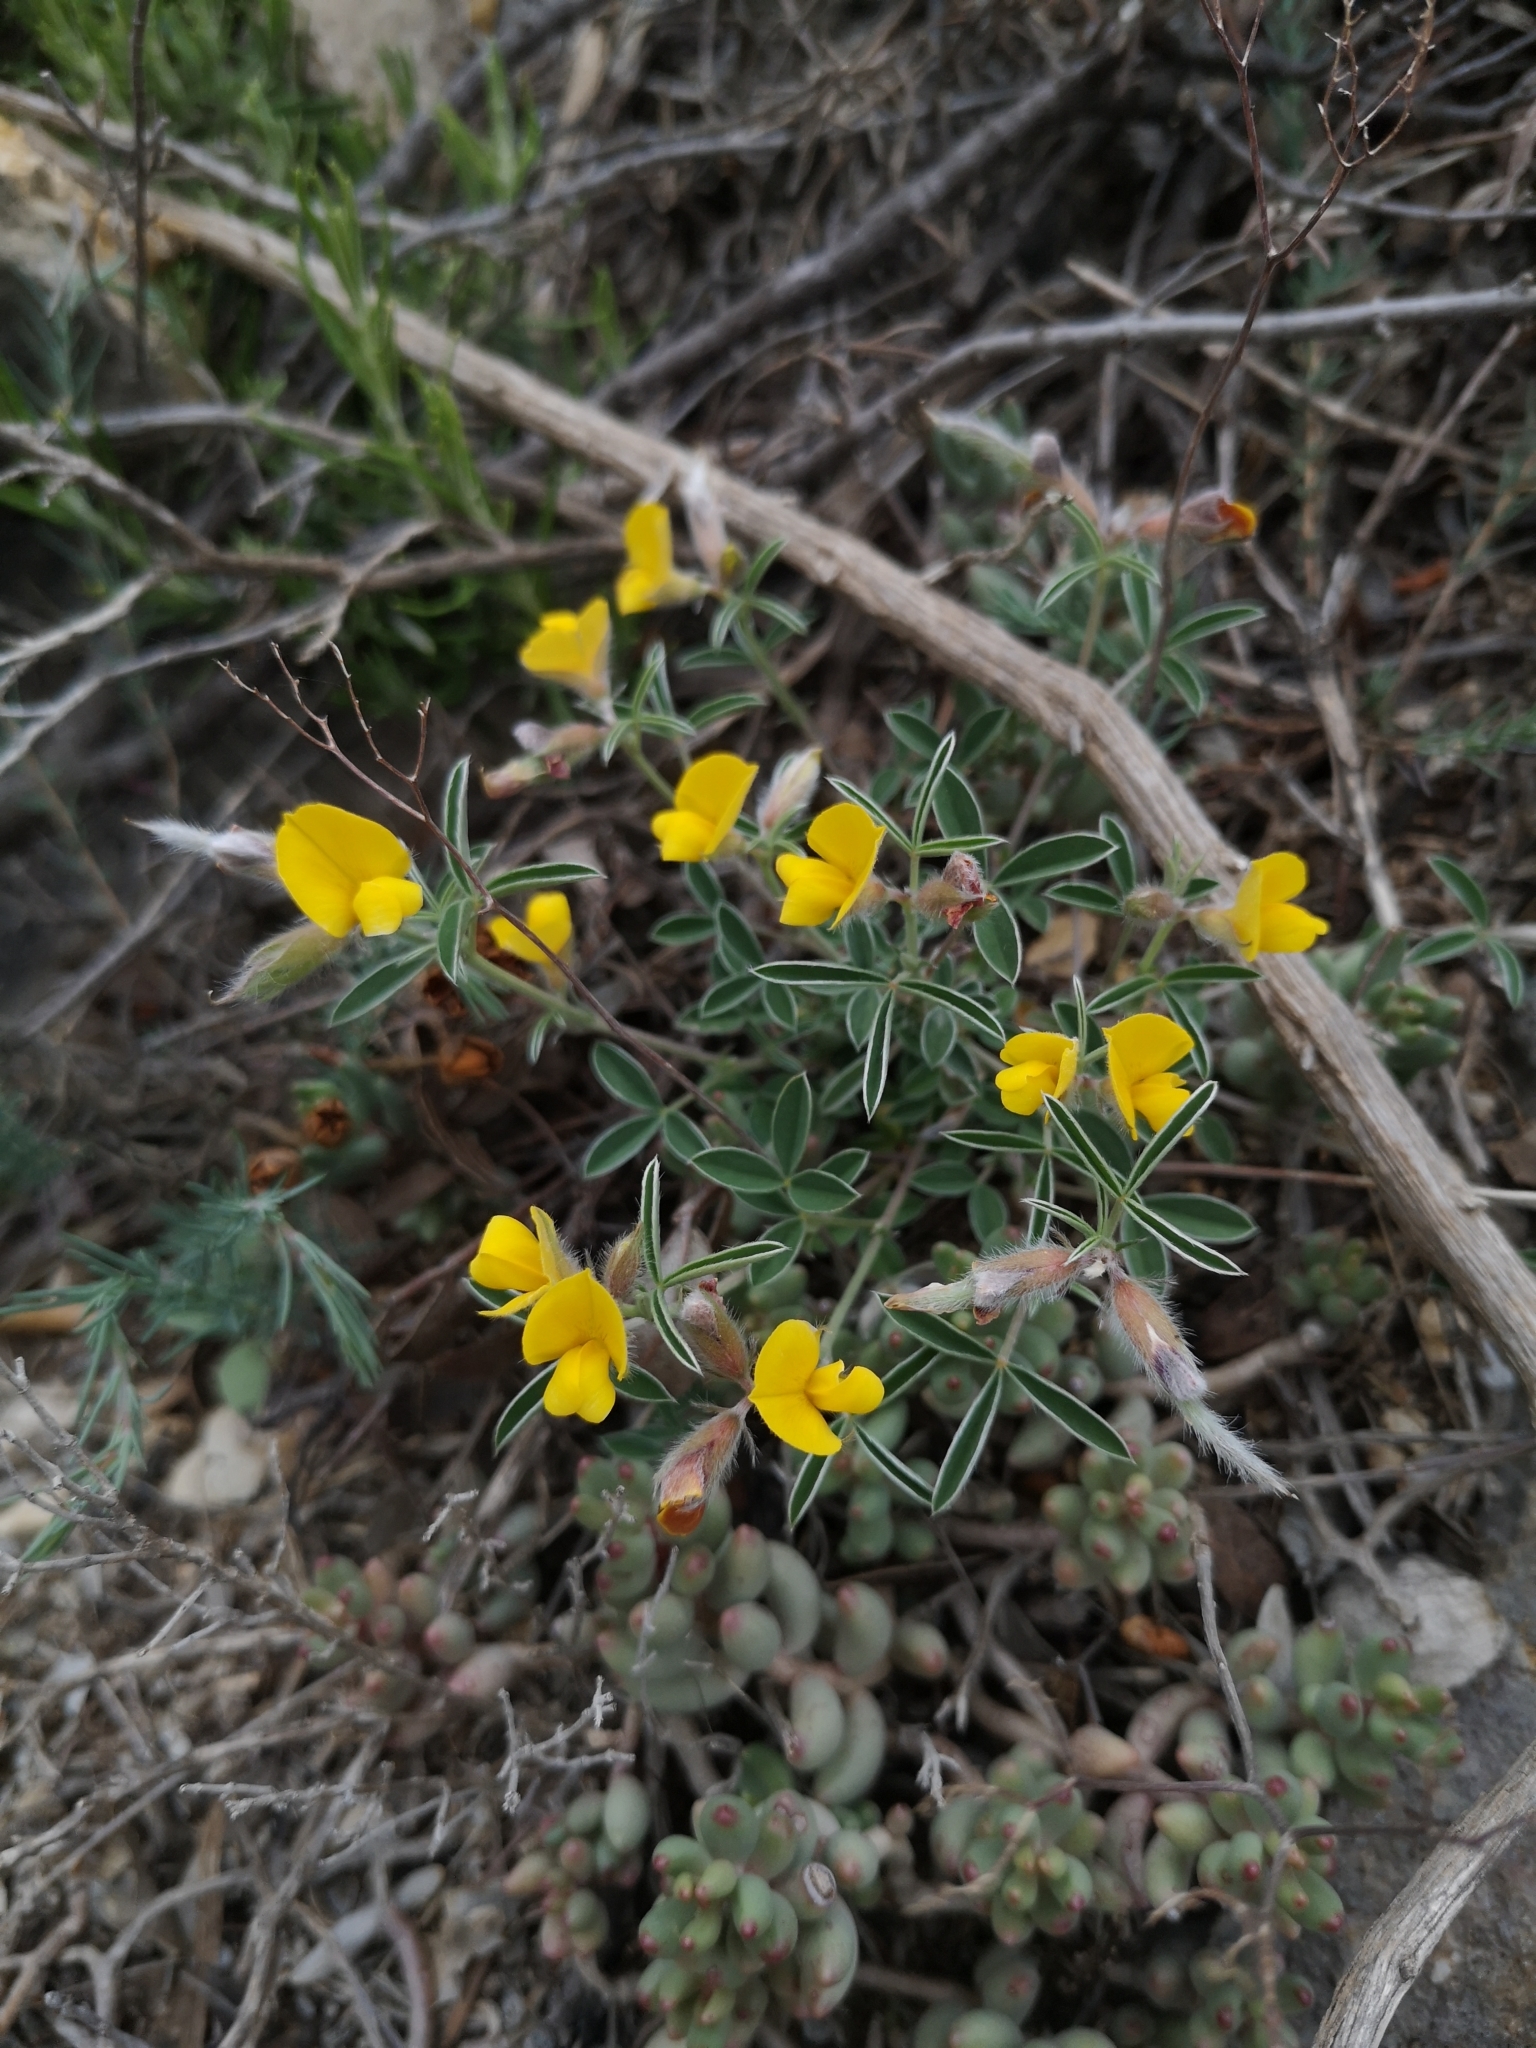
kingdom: Plantae
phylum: Tracheophyta
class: Magnoliopsida
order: Fabales
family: Fabaceae
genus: Argyrolobium
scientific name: Argyrolobium zanonii
